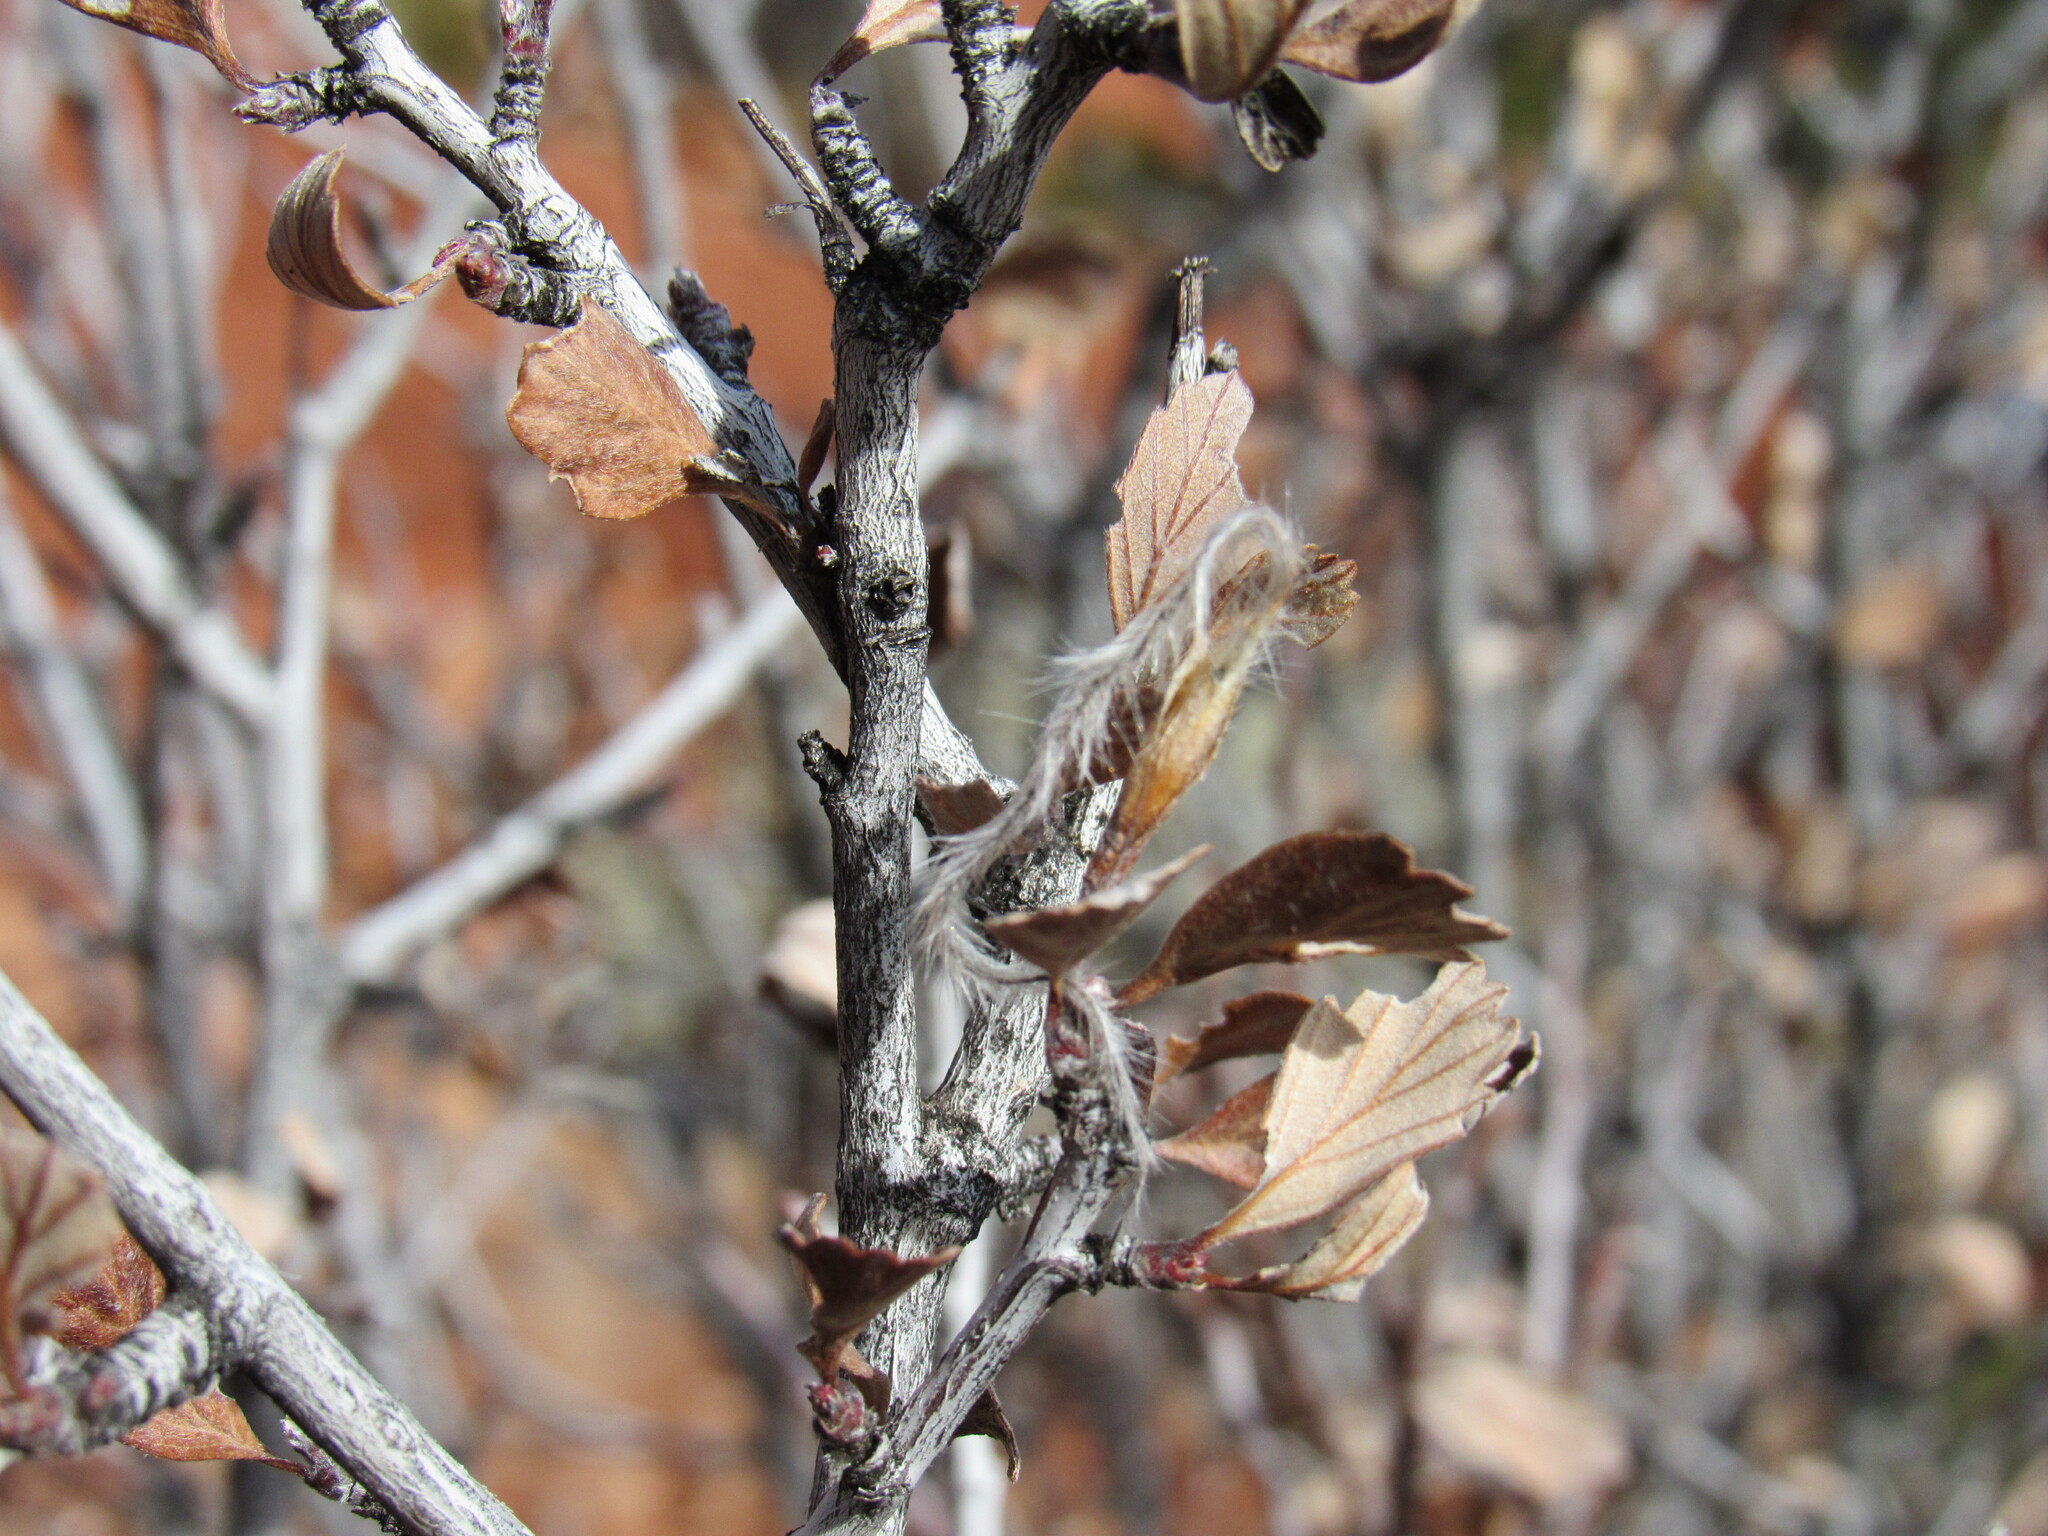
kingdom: Plantae
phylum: Tracheophyta
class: Magnoliopsida
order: Rosales
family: Rosaceae
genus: Cercocarpus
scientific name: Cercocarpus montanus
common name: Alder-leaf cercocarpus
